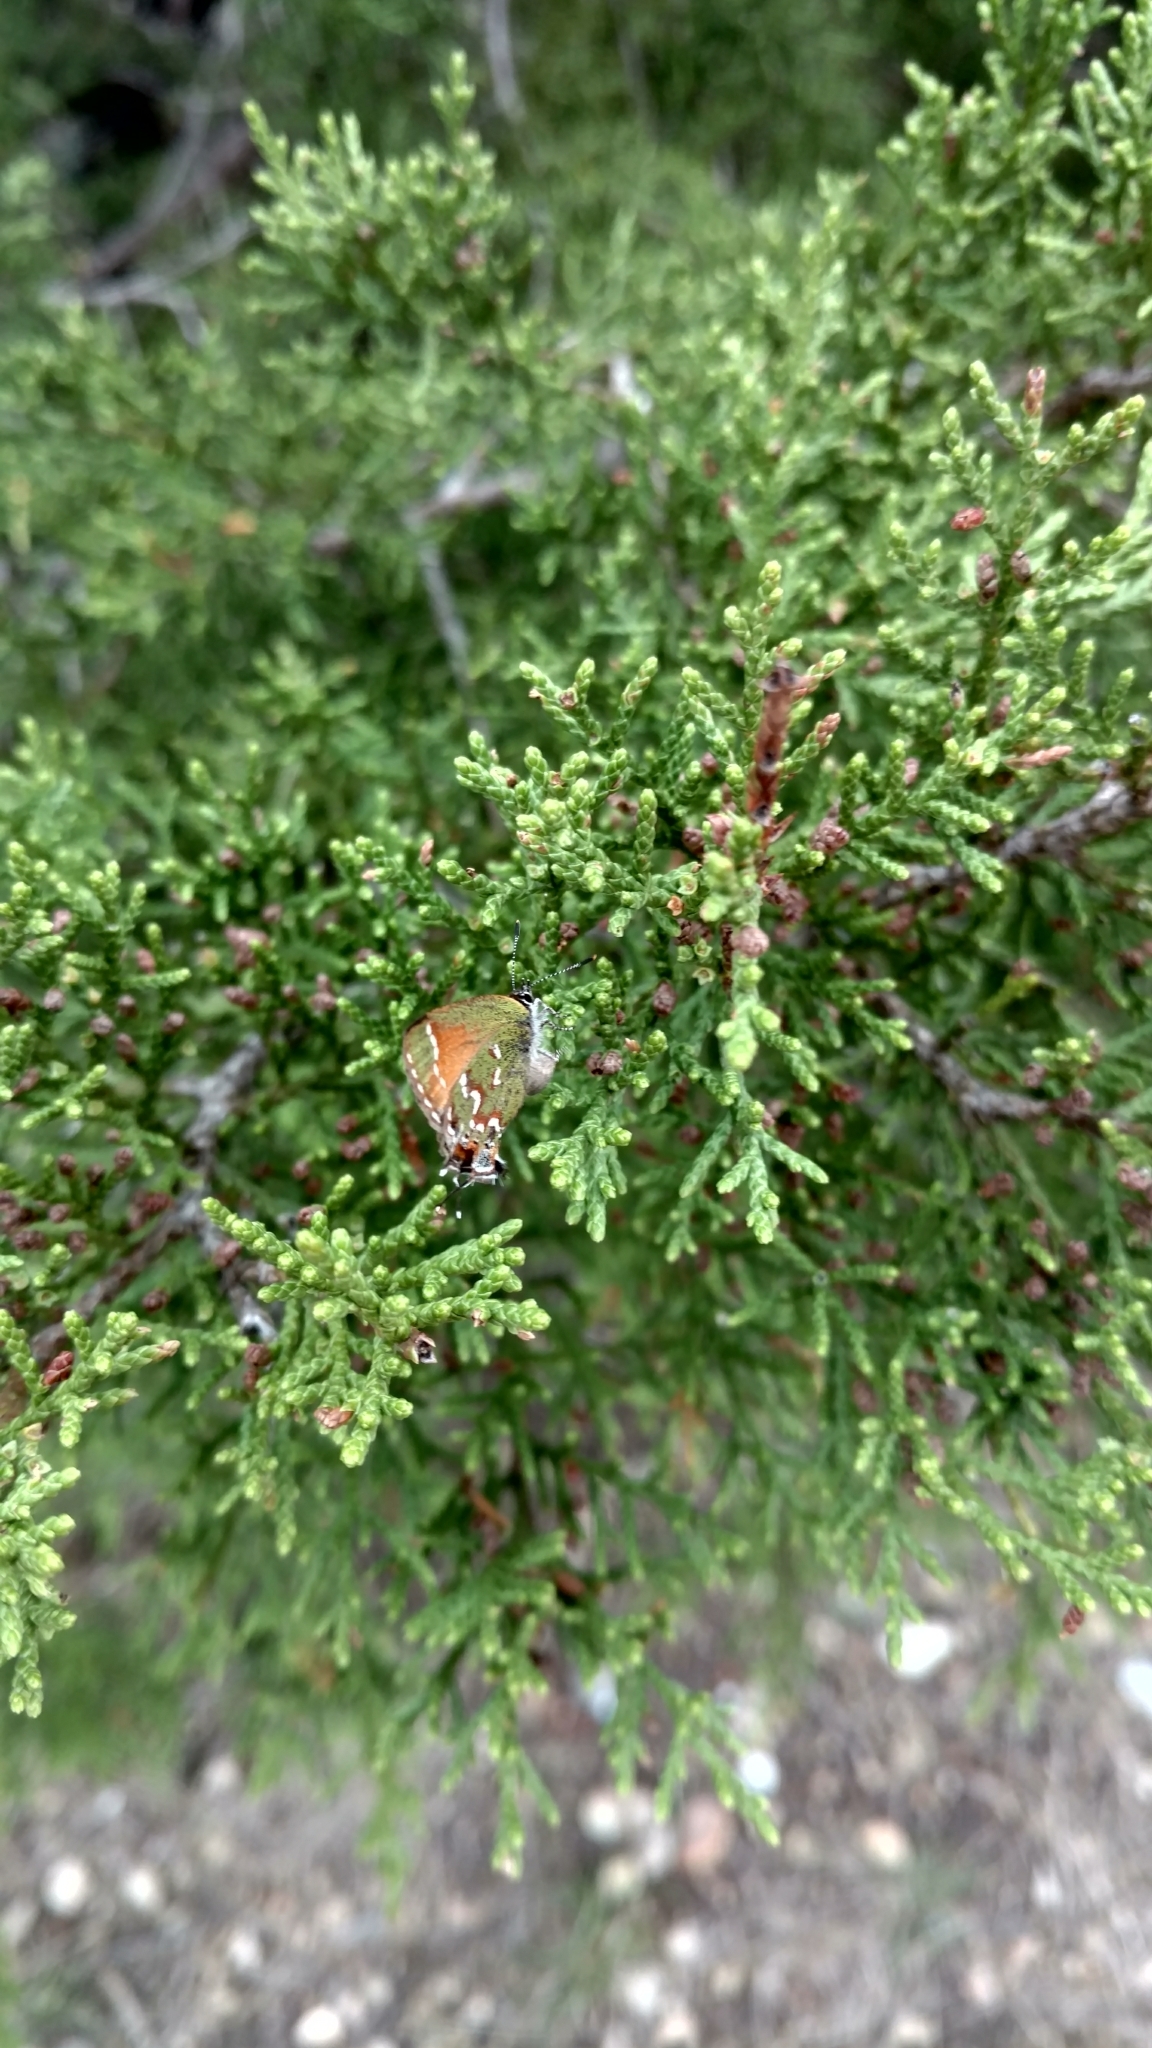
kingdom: Animalia
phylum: Arthropoda
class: Insecta
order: Lepidoptera
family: Lycaenidae
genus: Mitoura
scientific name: Mitoura gryneus
